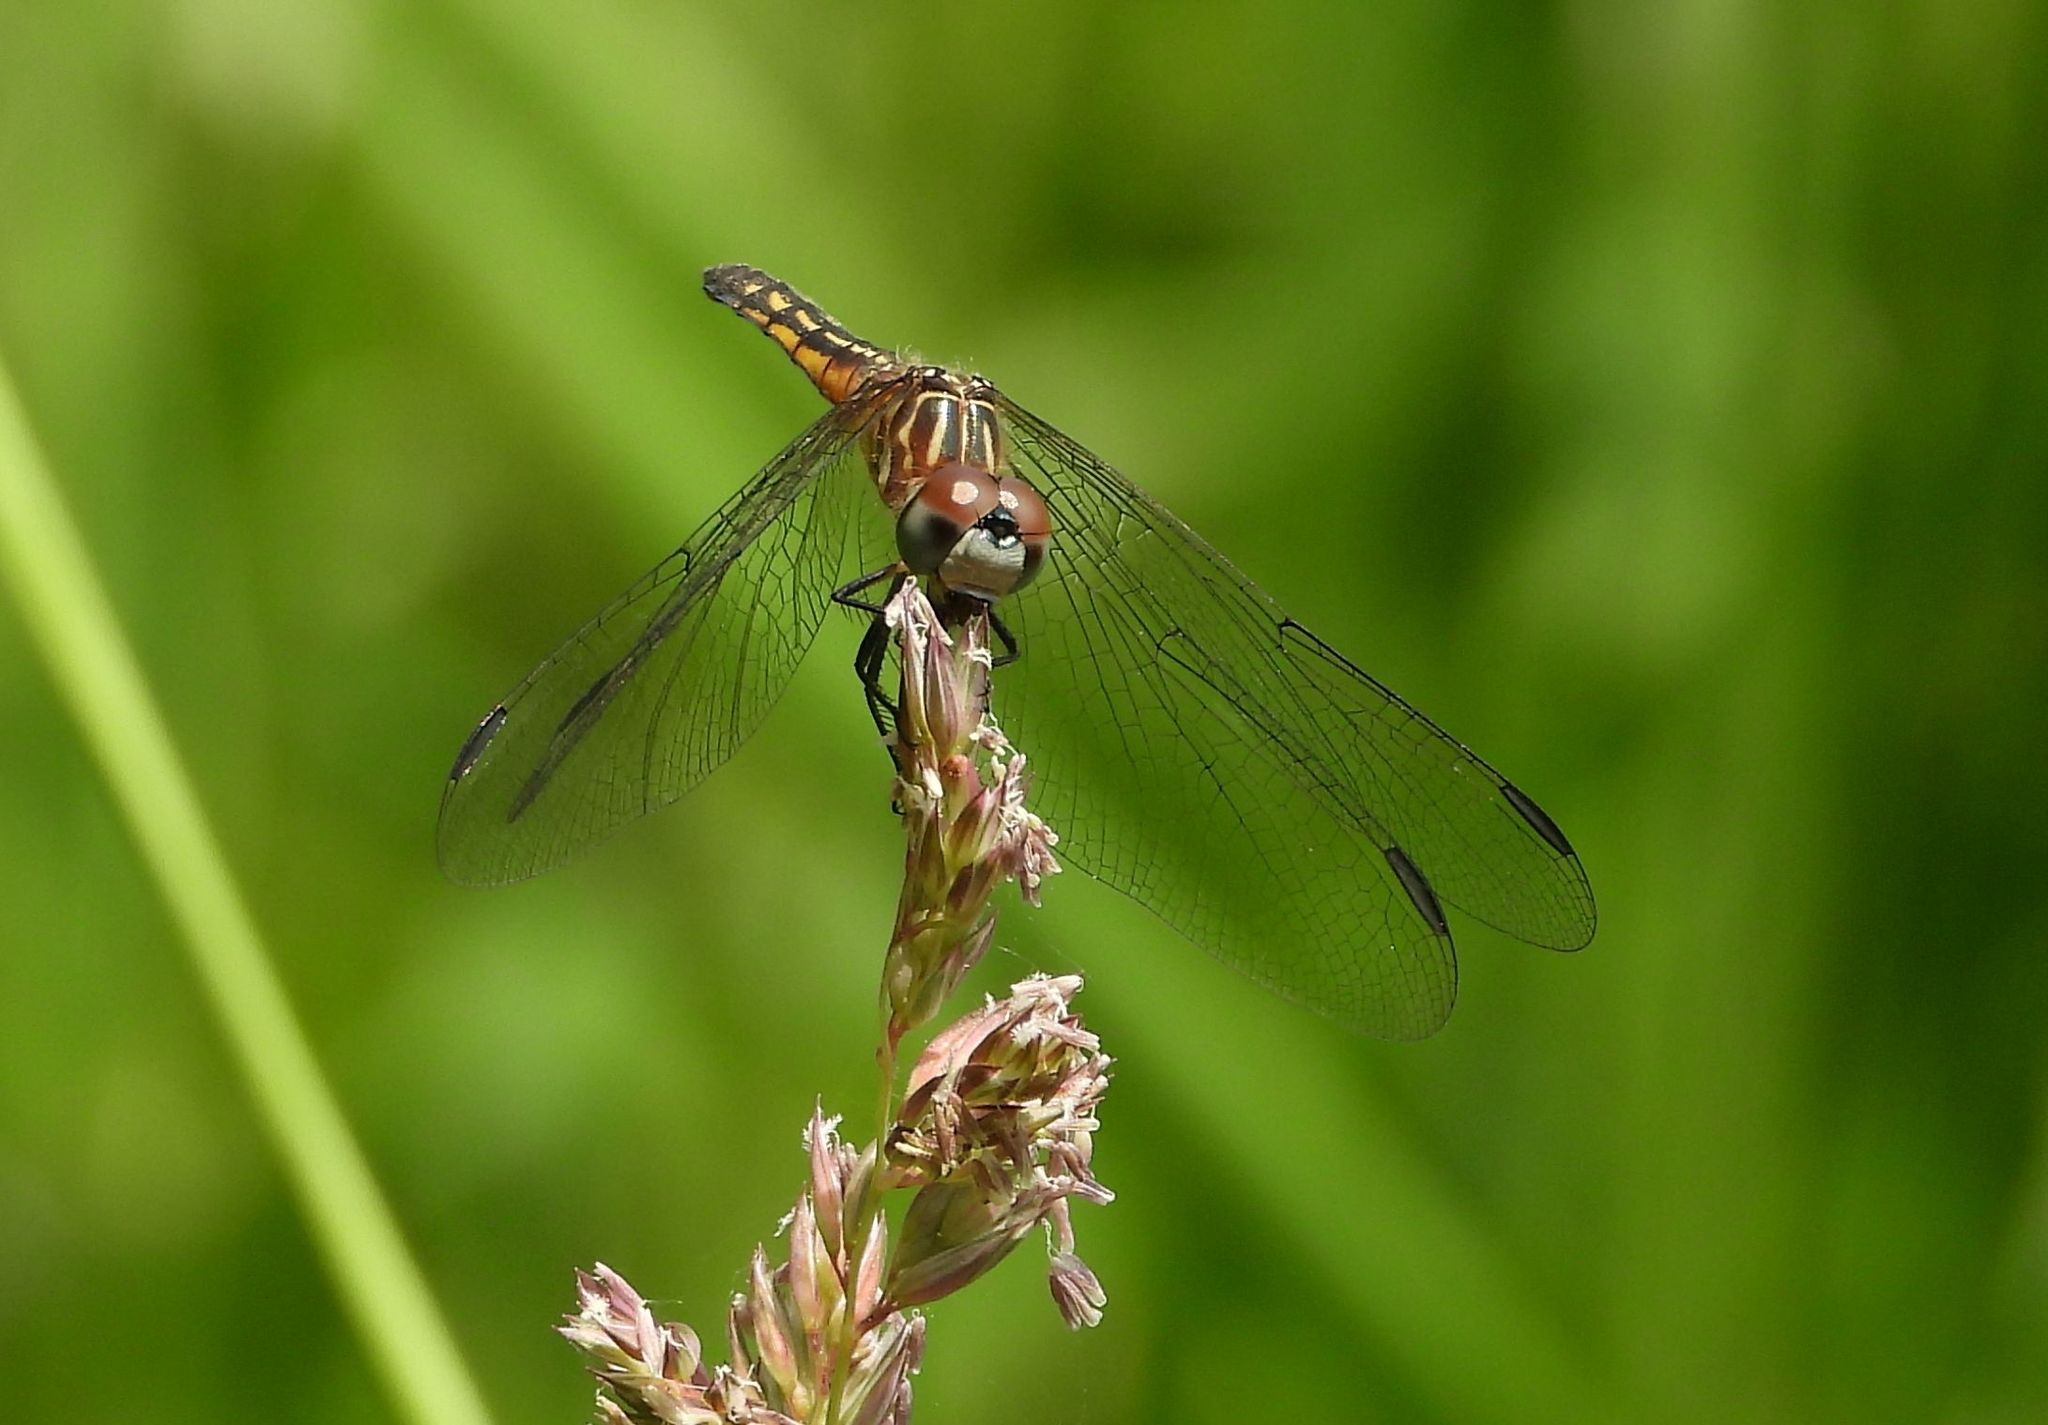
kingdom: Animalia
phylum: Arthropoda
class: Insecta
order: Odonata
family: Libellulidae
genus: Pachydiplax
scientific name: Pachydiplax longipennis
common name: Blue dasher
